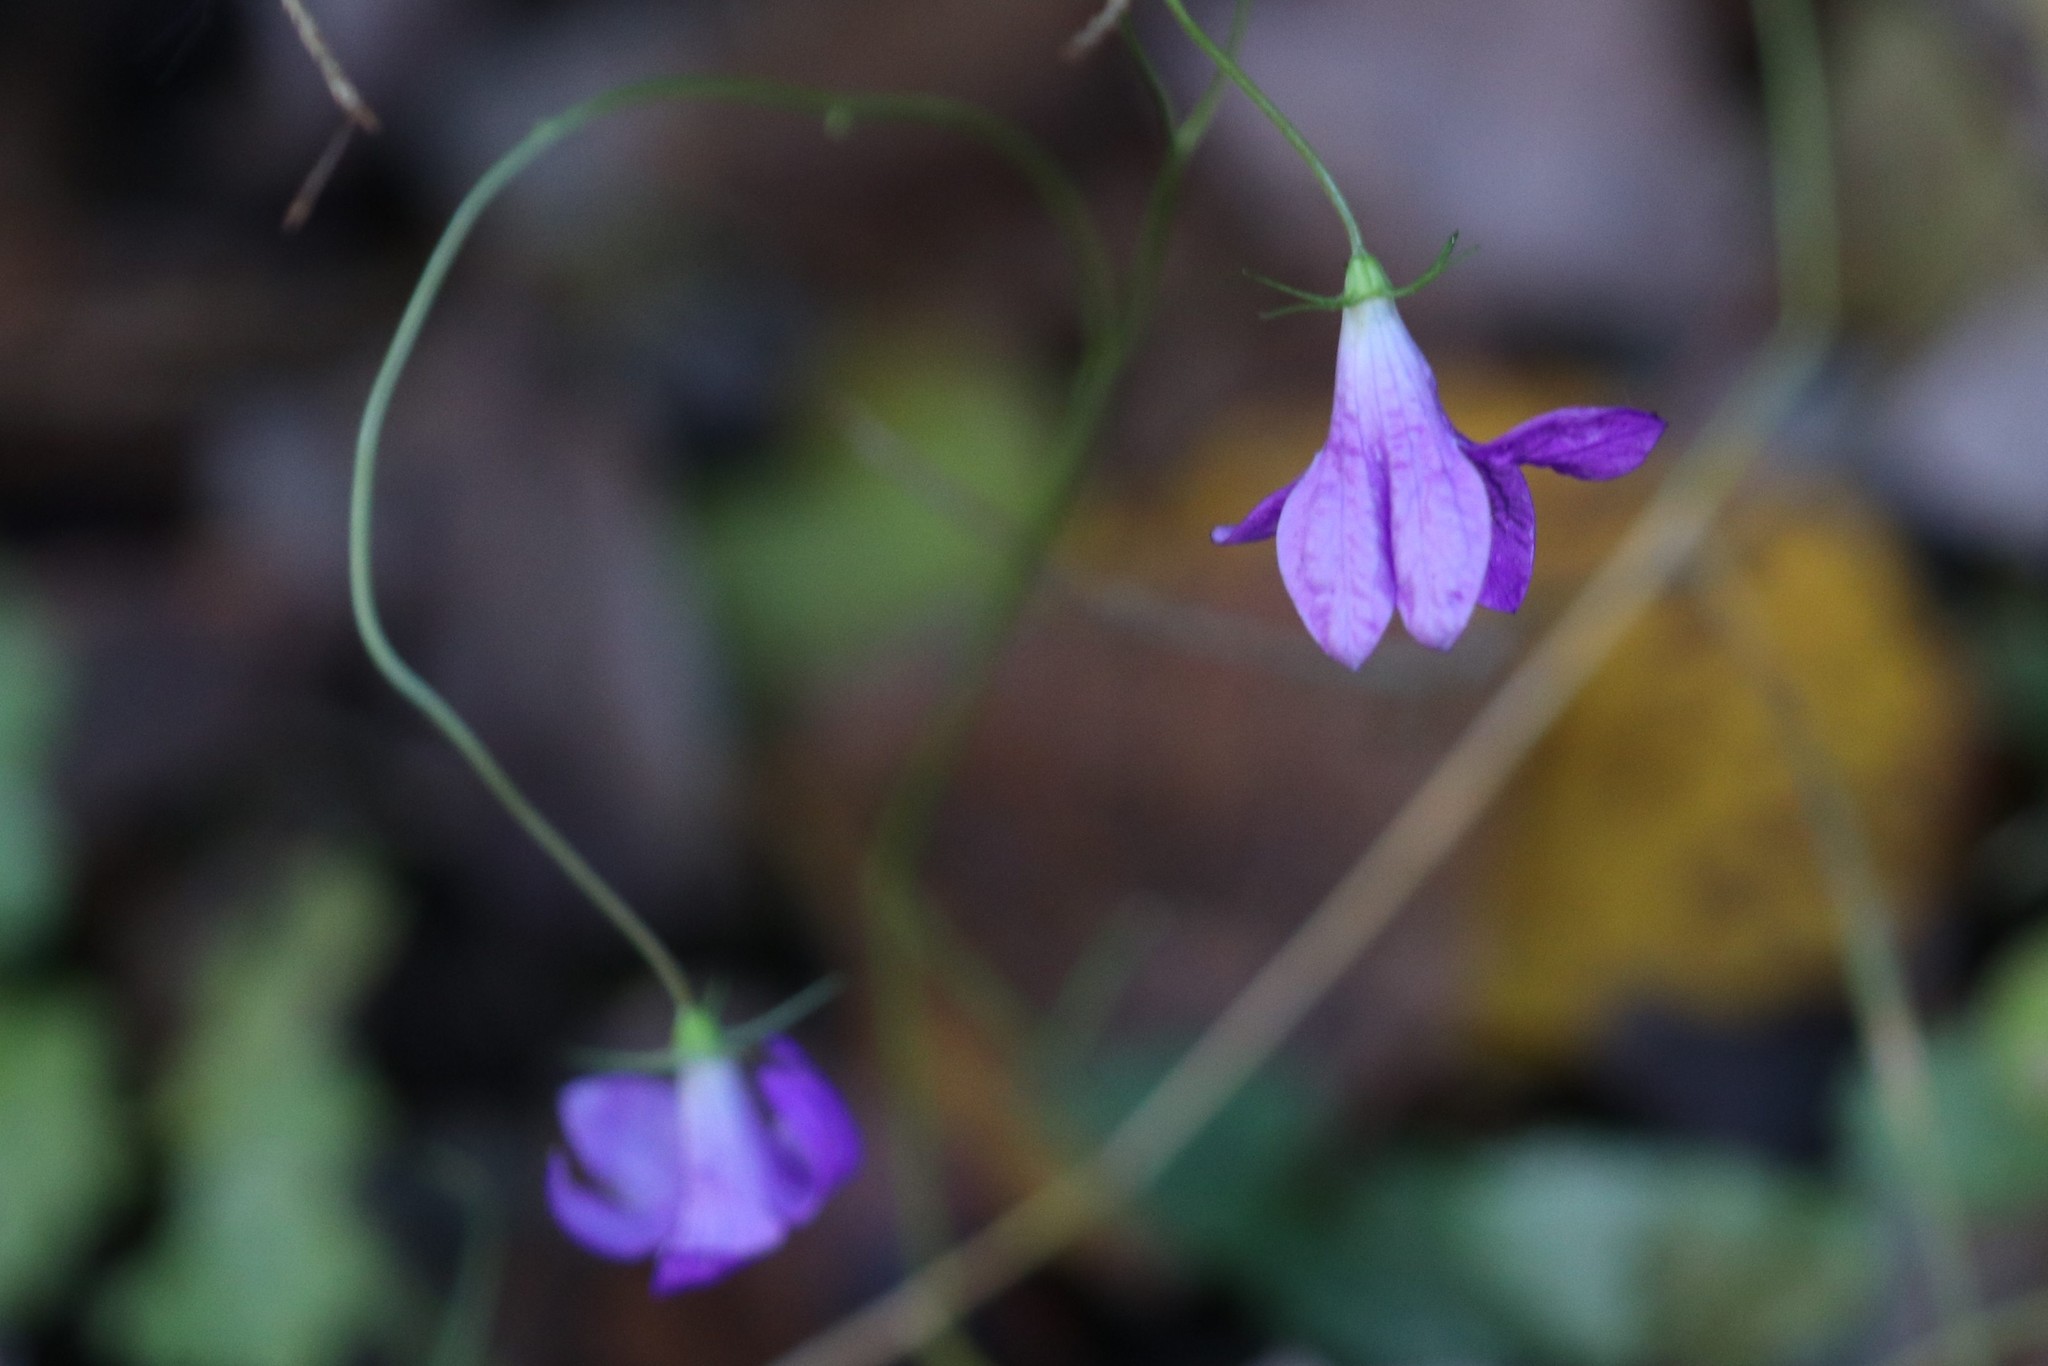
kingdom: Plantae
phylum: Tracheophyta
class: Magnoliopsida
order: Asterales
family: Campanulaceae
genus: Campanula
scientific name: Campanula patula
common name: Spreading bellflower
